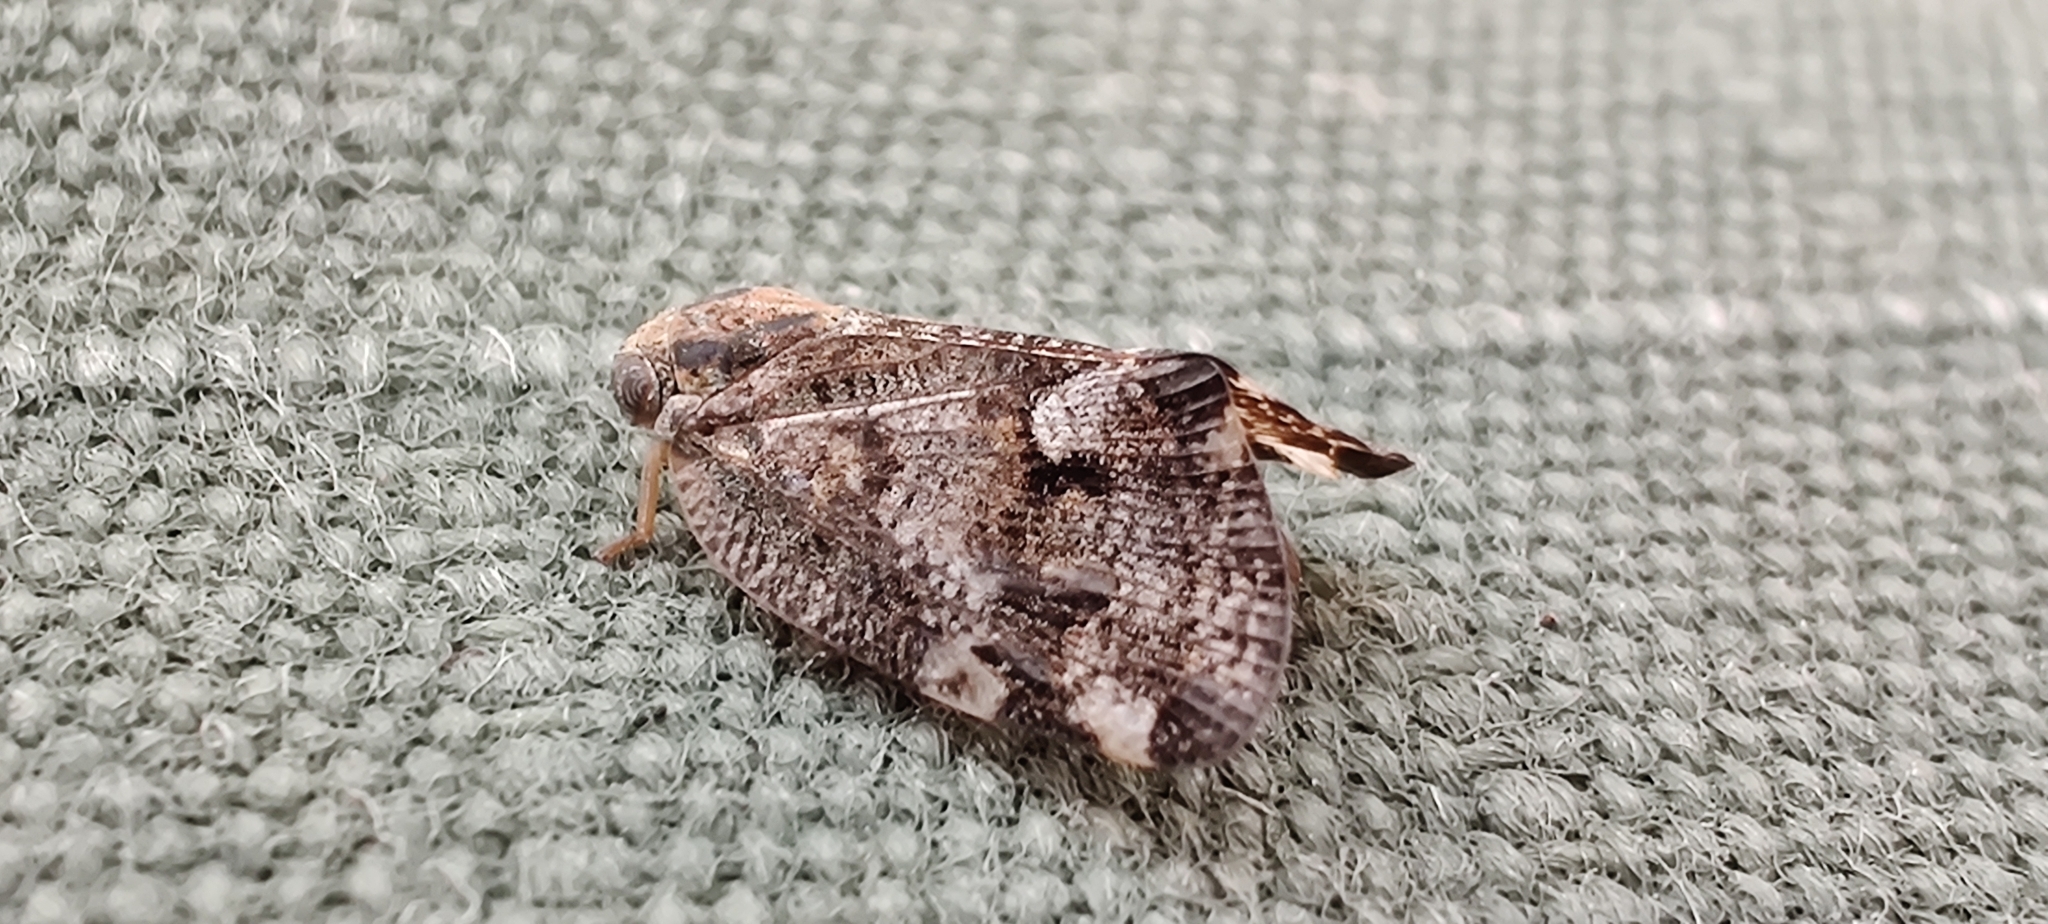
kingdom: Animalia
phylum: Arthropoda
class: Insecta
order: Hemiptera
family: Ricaniidae
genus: Aprivesa
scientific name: Aprivesa exuta
